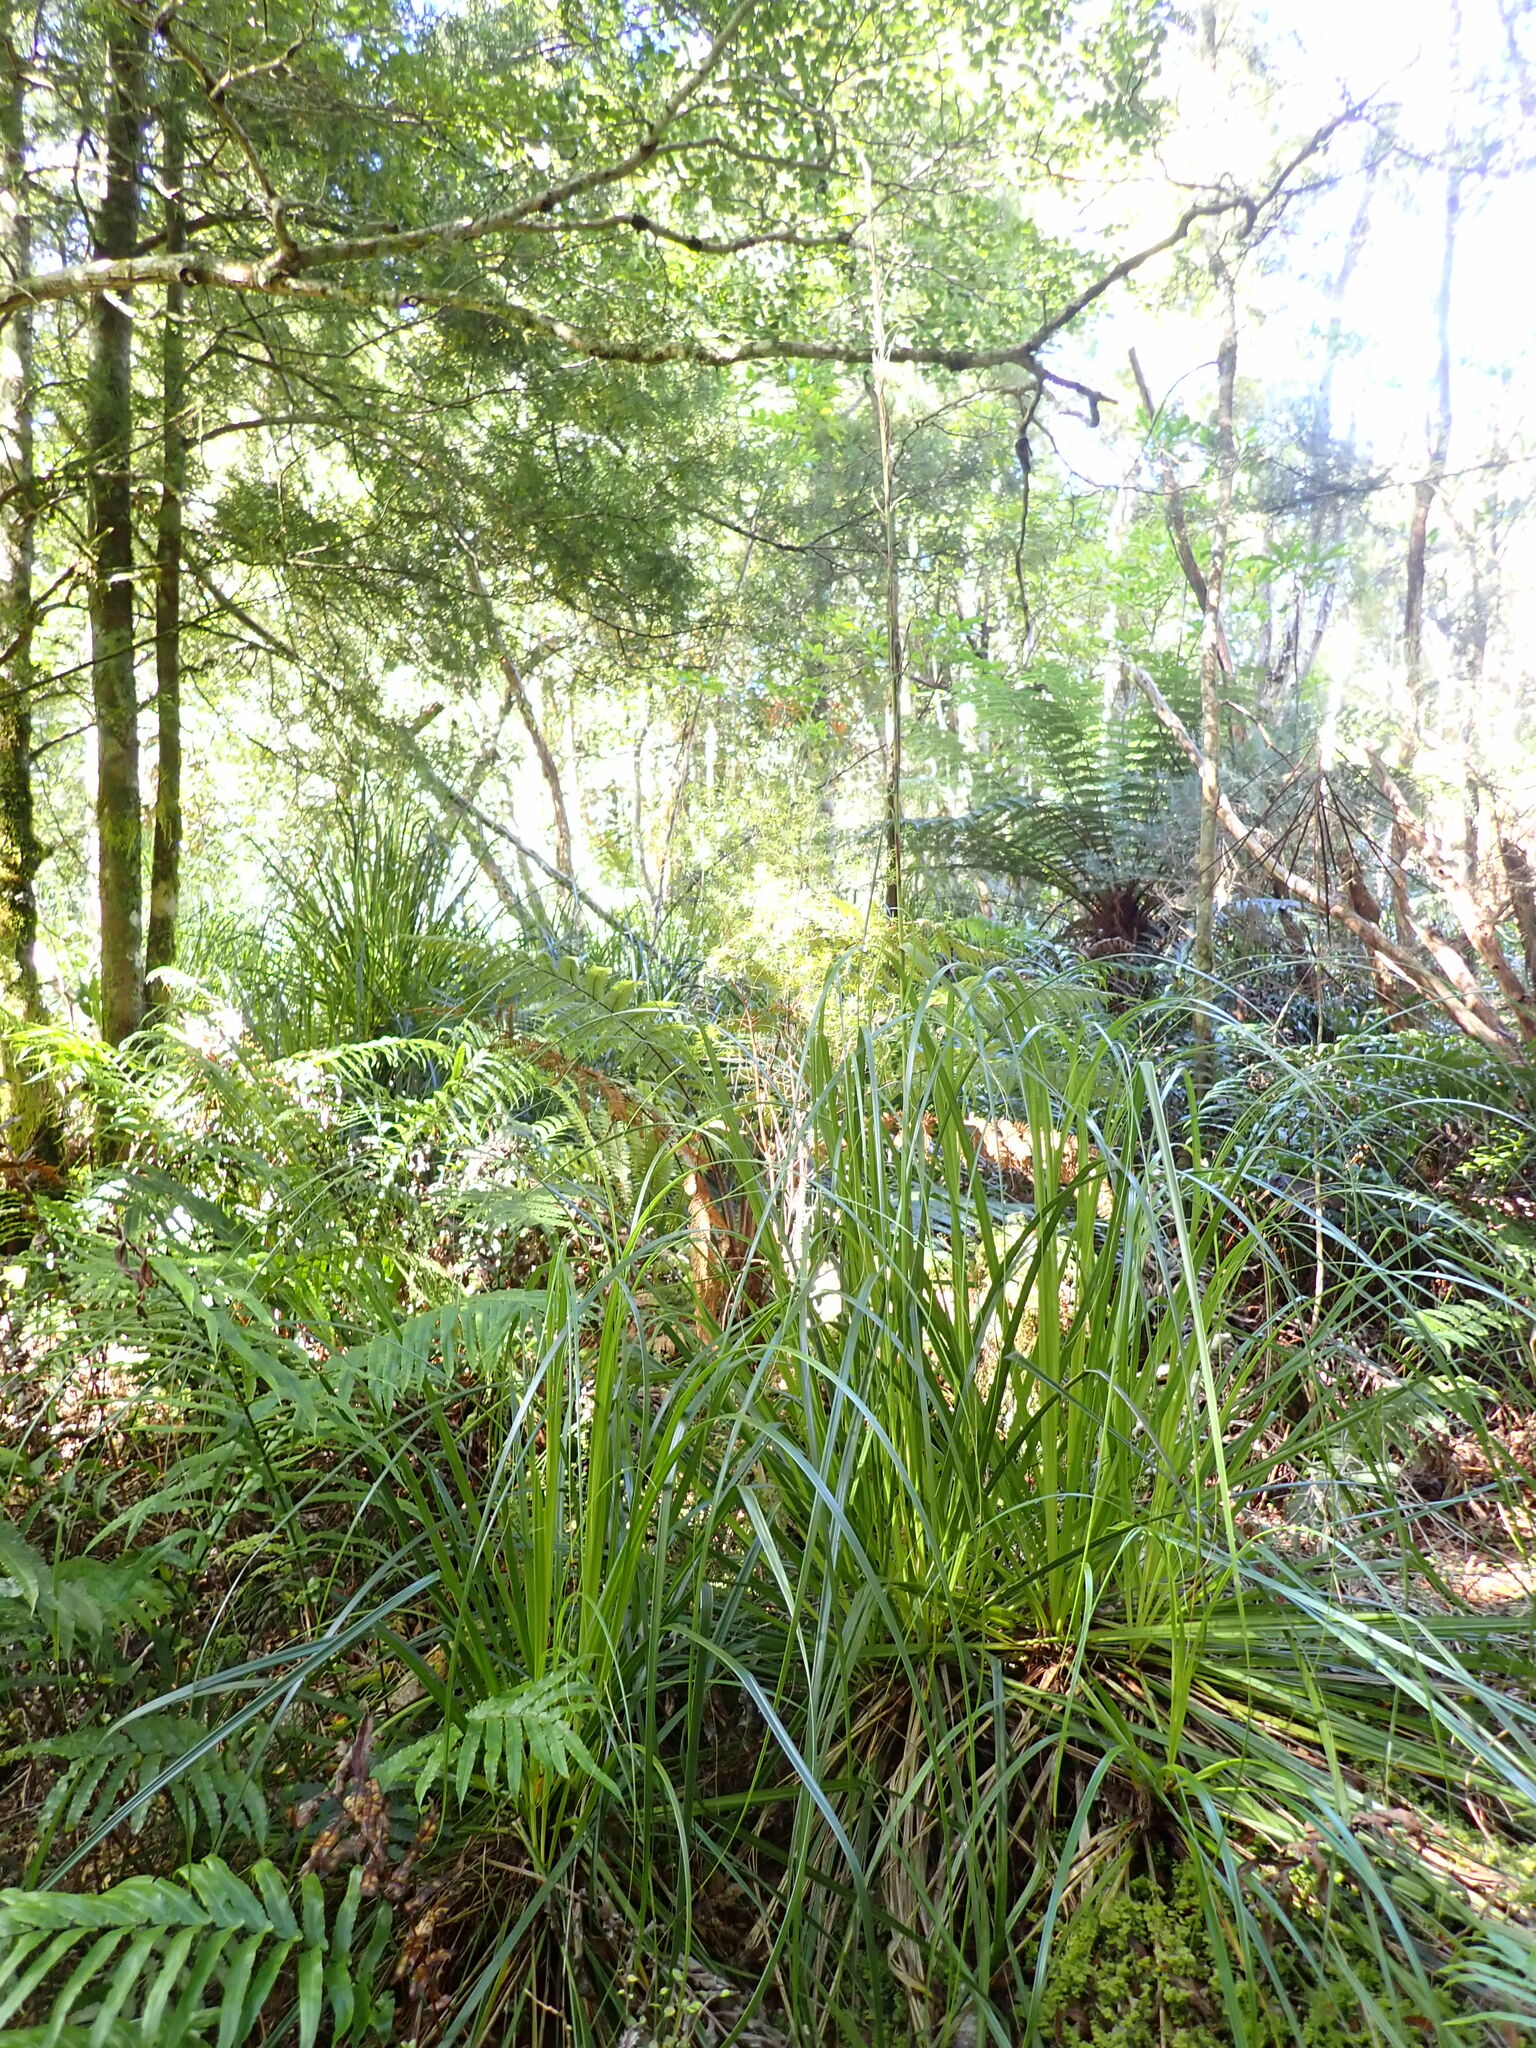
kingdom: Plantae
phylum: Tracheophyta
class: Liliopsida
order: Poales
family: Cyperaceae
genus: Gahnia
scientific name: Gahnia xanthocarpa
